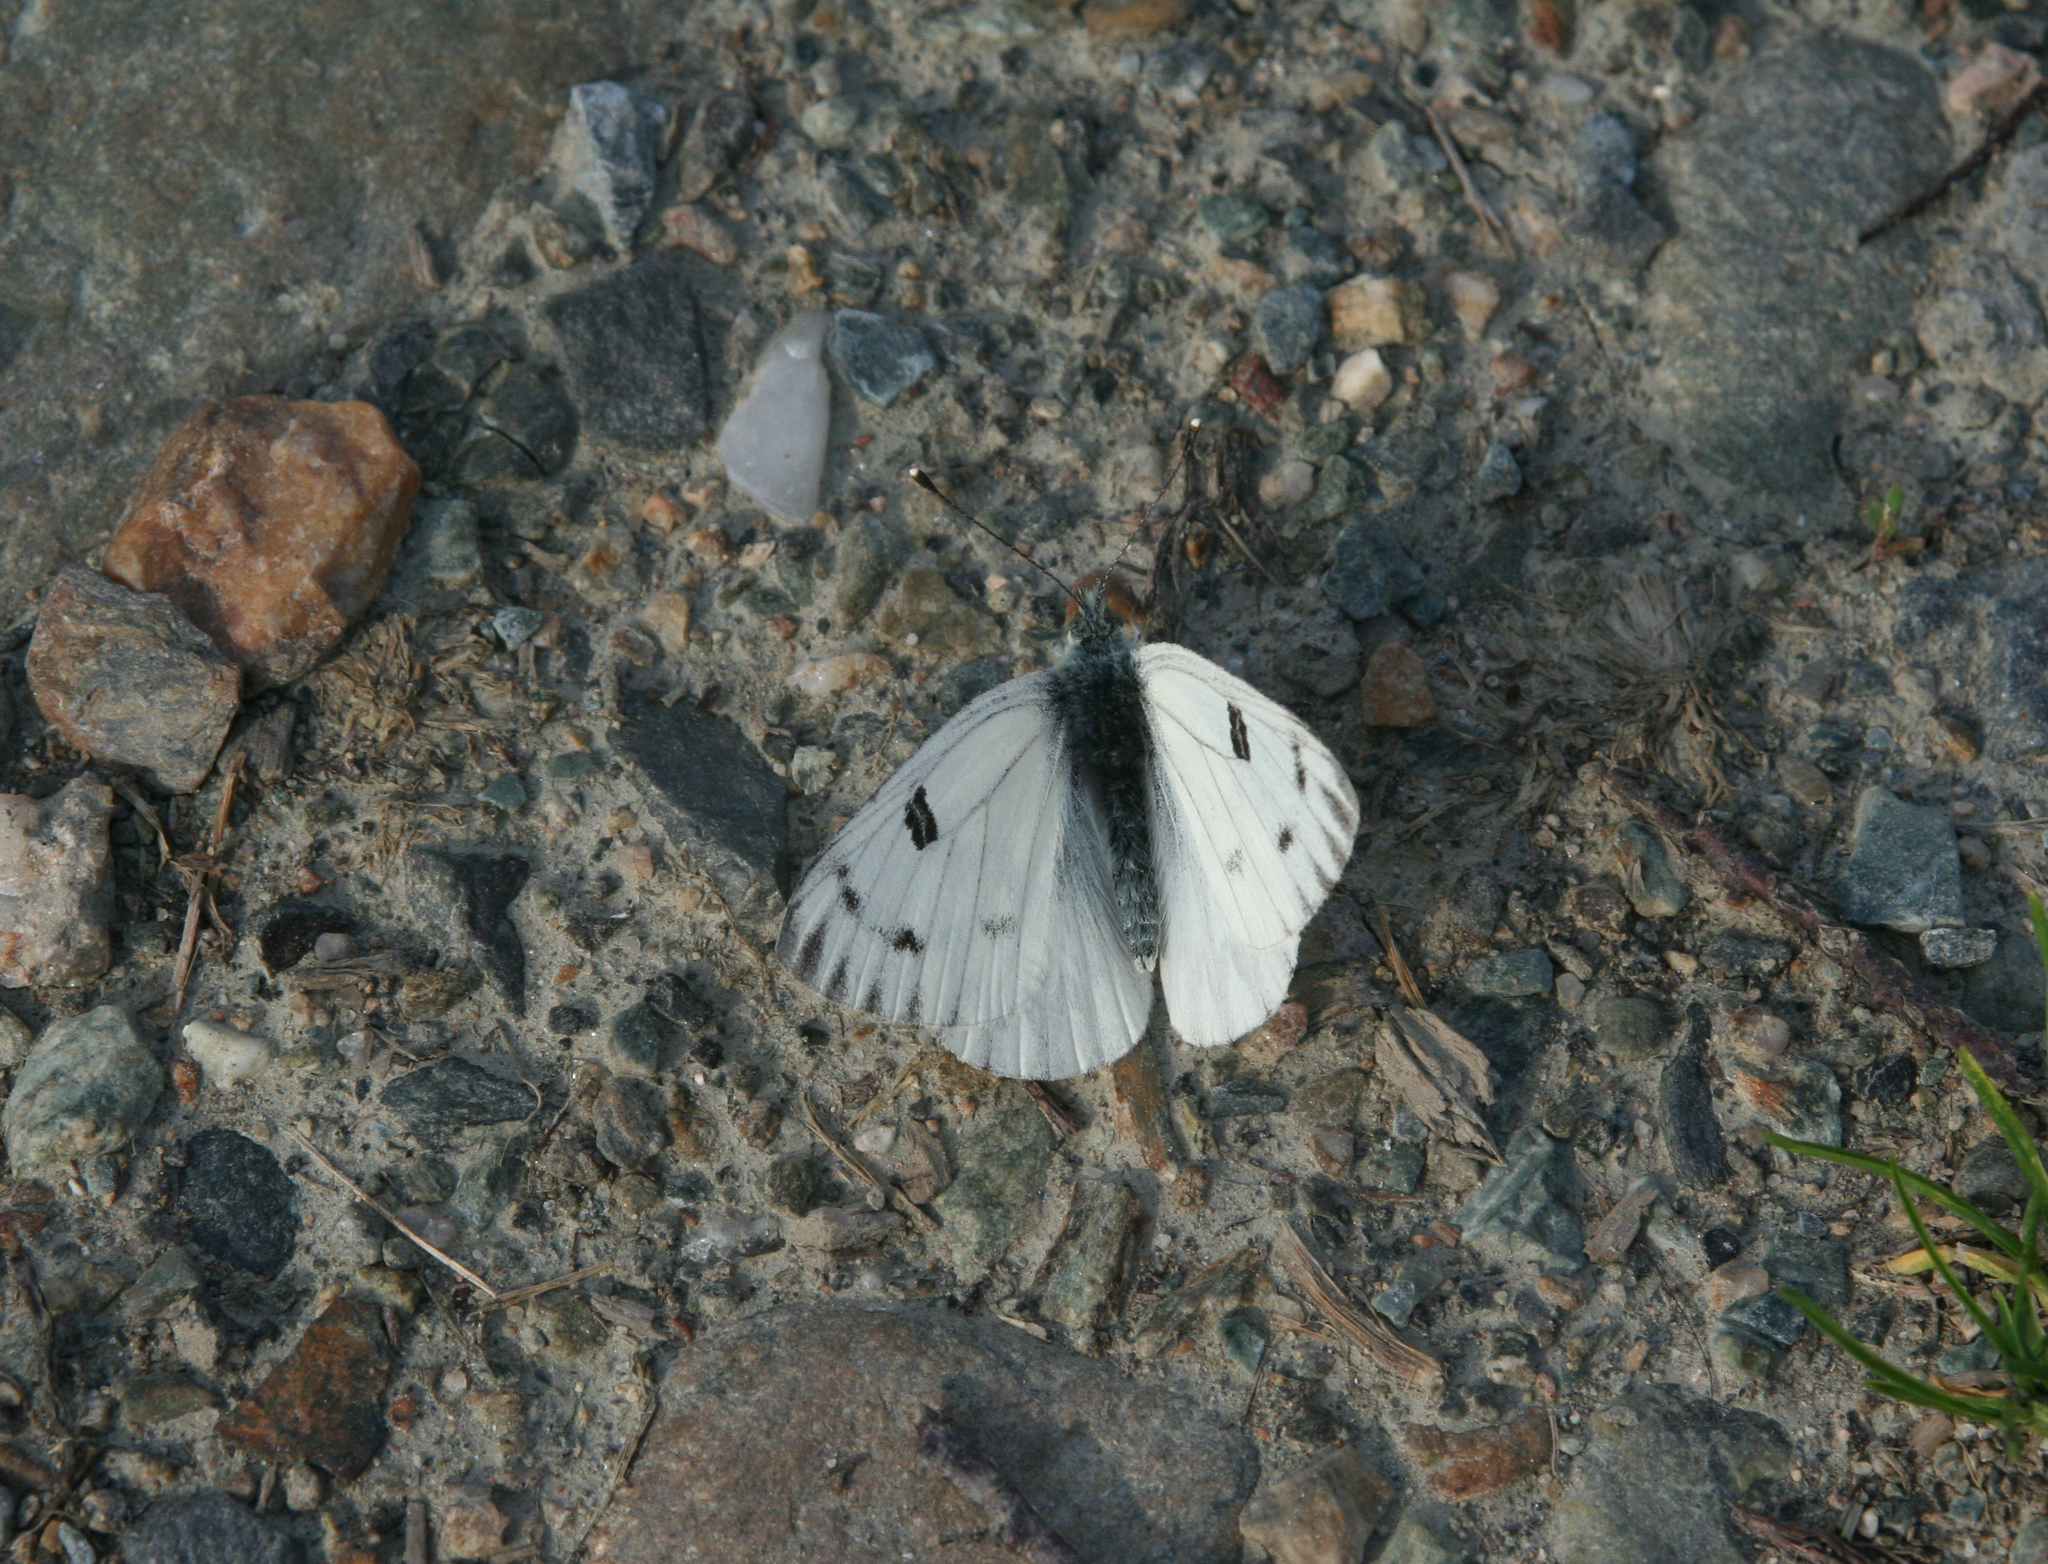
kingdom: Animalia
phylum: Arthropoda
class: Insecta
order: Lepidoptera
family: Pieridae
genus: Pontia
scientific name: Pontia callidice
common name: Peak white
